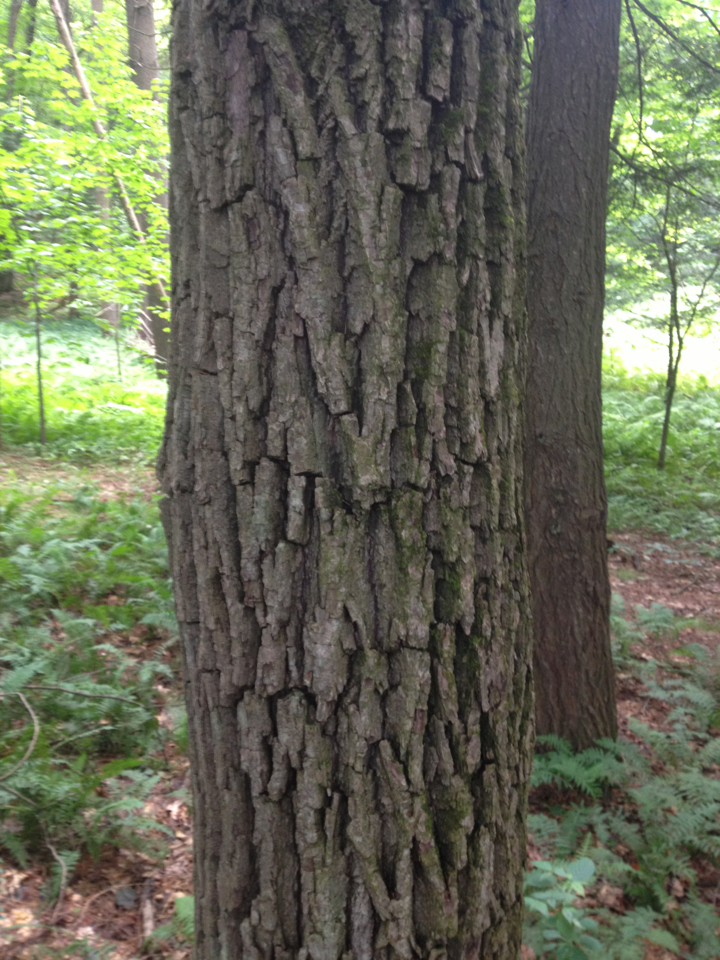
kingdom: Plantae
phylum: Tracheophyta
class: Magnoliopsida
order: Fagales
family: Juglandaceae
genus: Juglans
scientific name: Juglans nigra
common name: Black walnut
